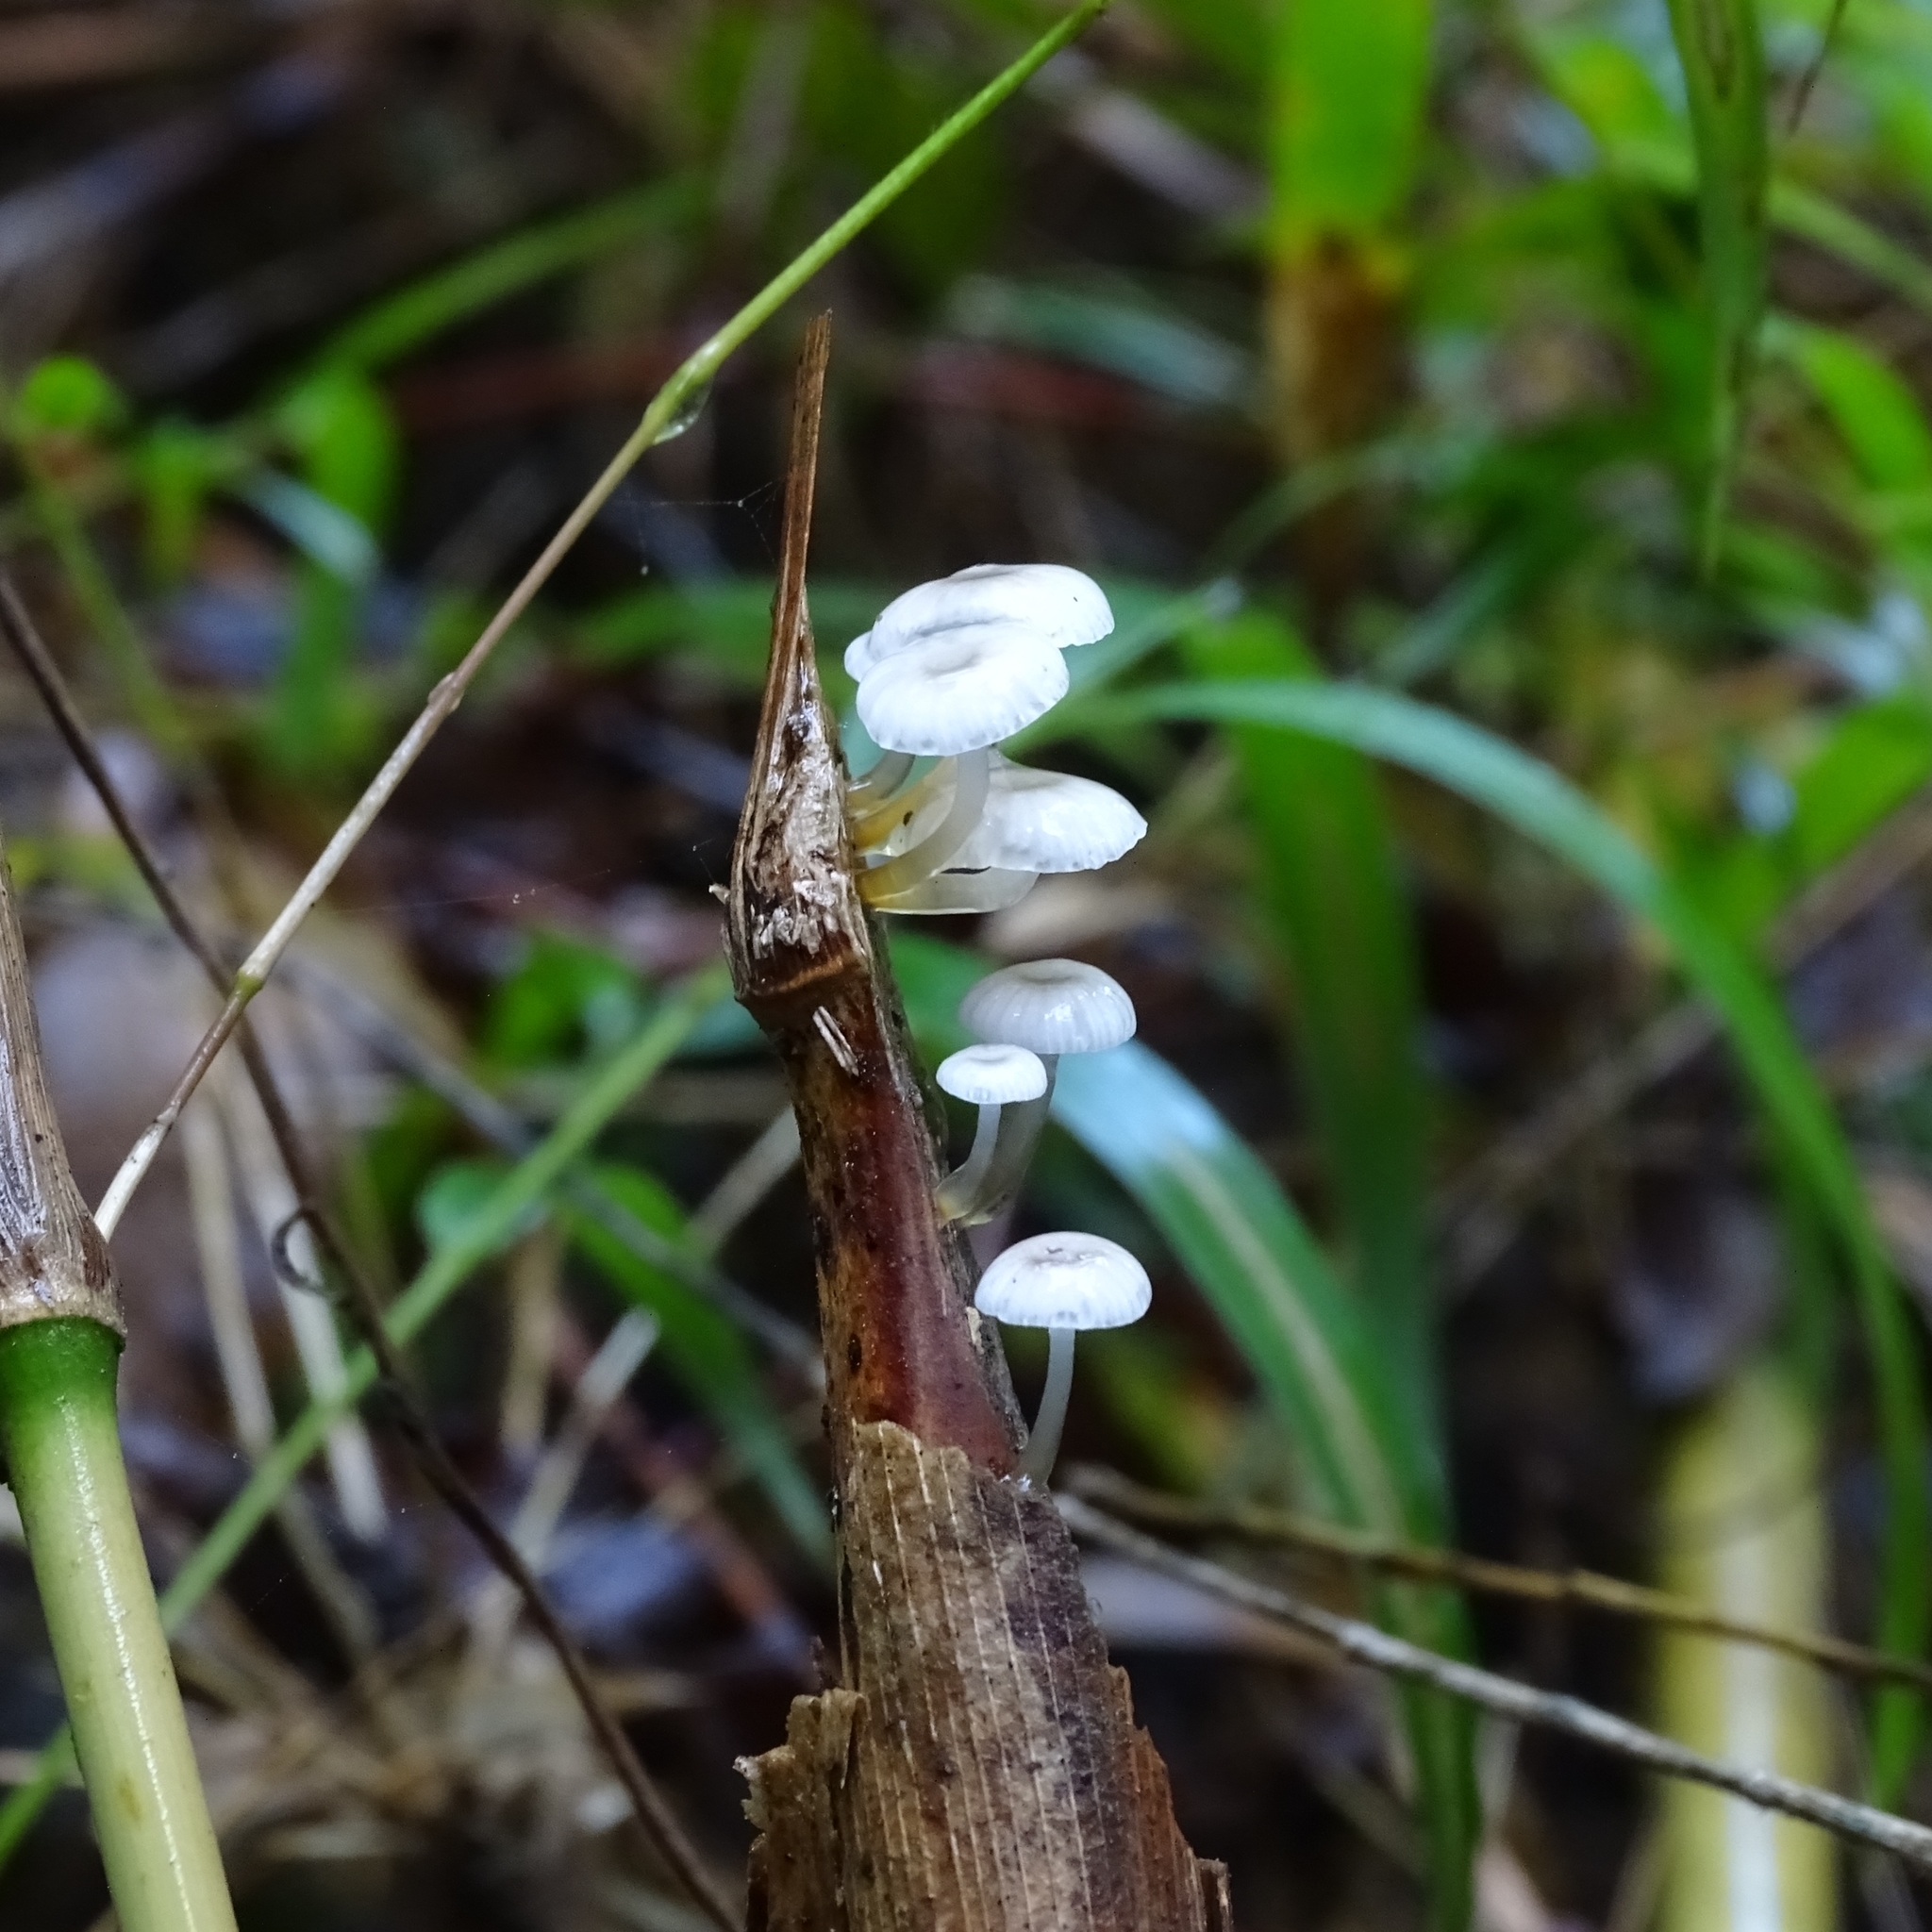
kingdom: Fungi
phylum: Basidiomycota
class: Agaricomycetes
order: Agaricales
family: Mycenaceae
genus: Mycena
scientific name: Mycena subulifera
